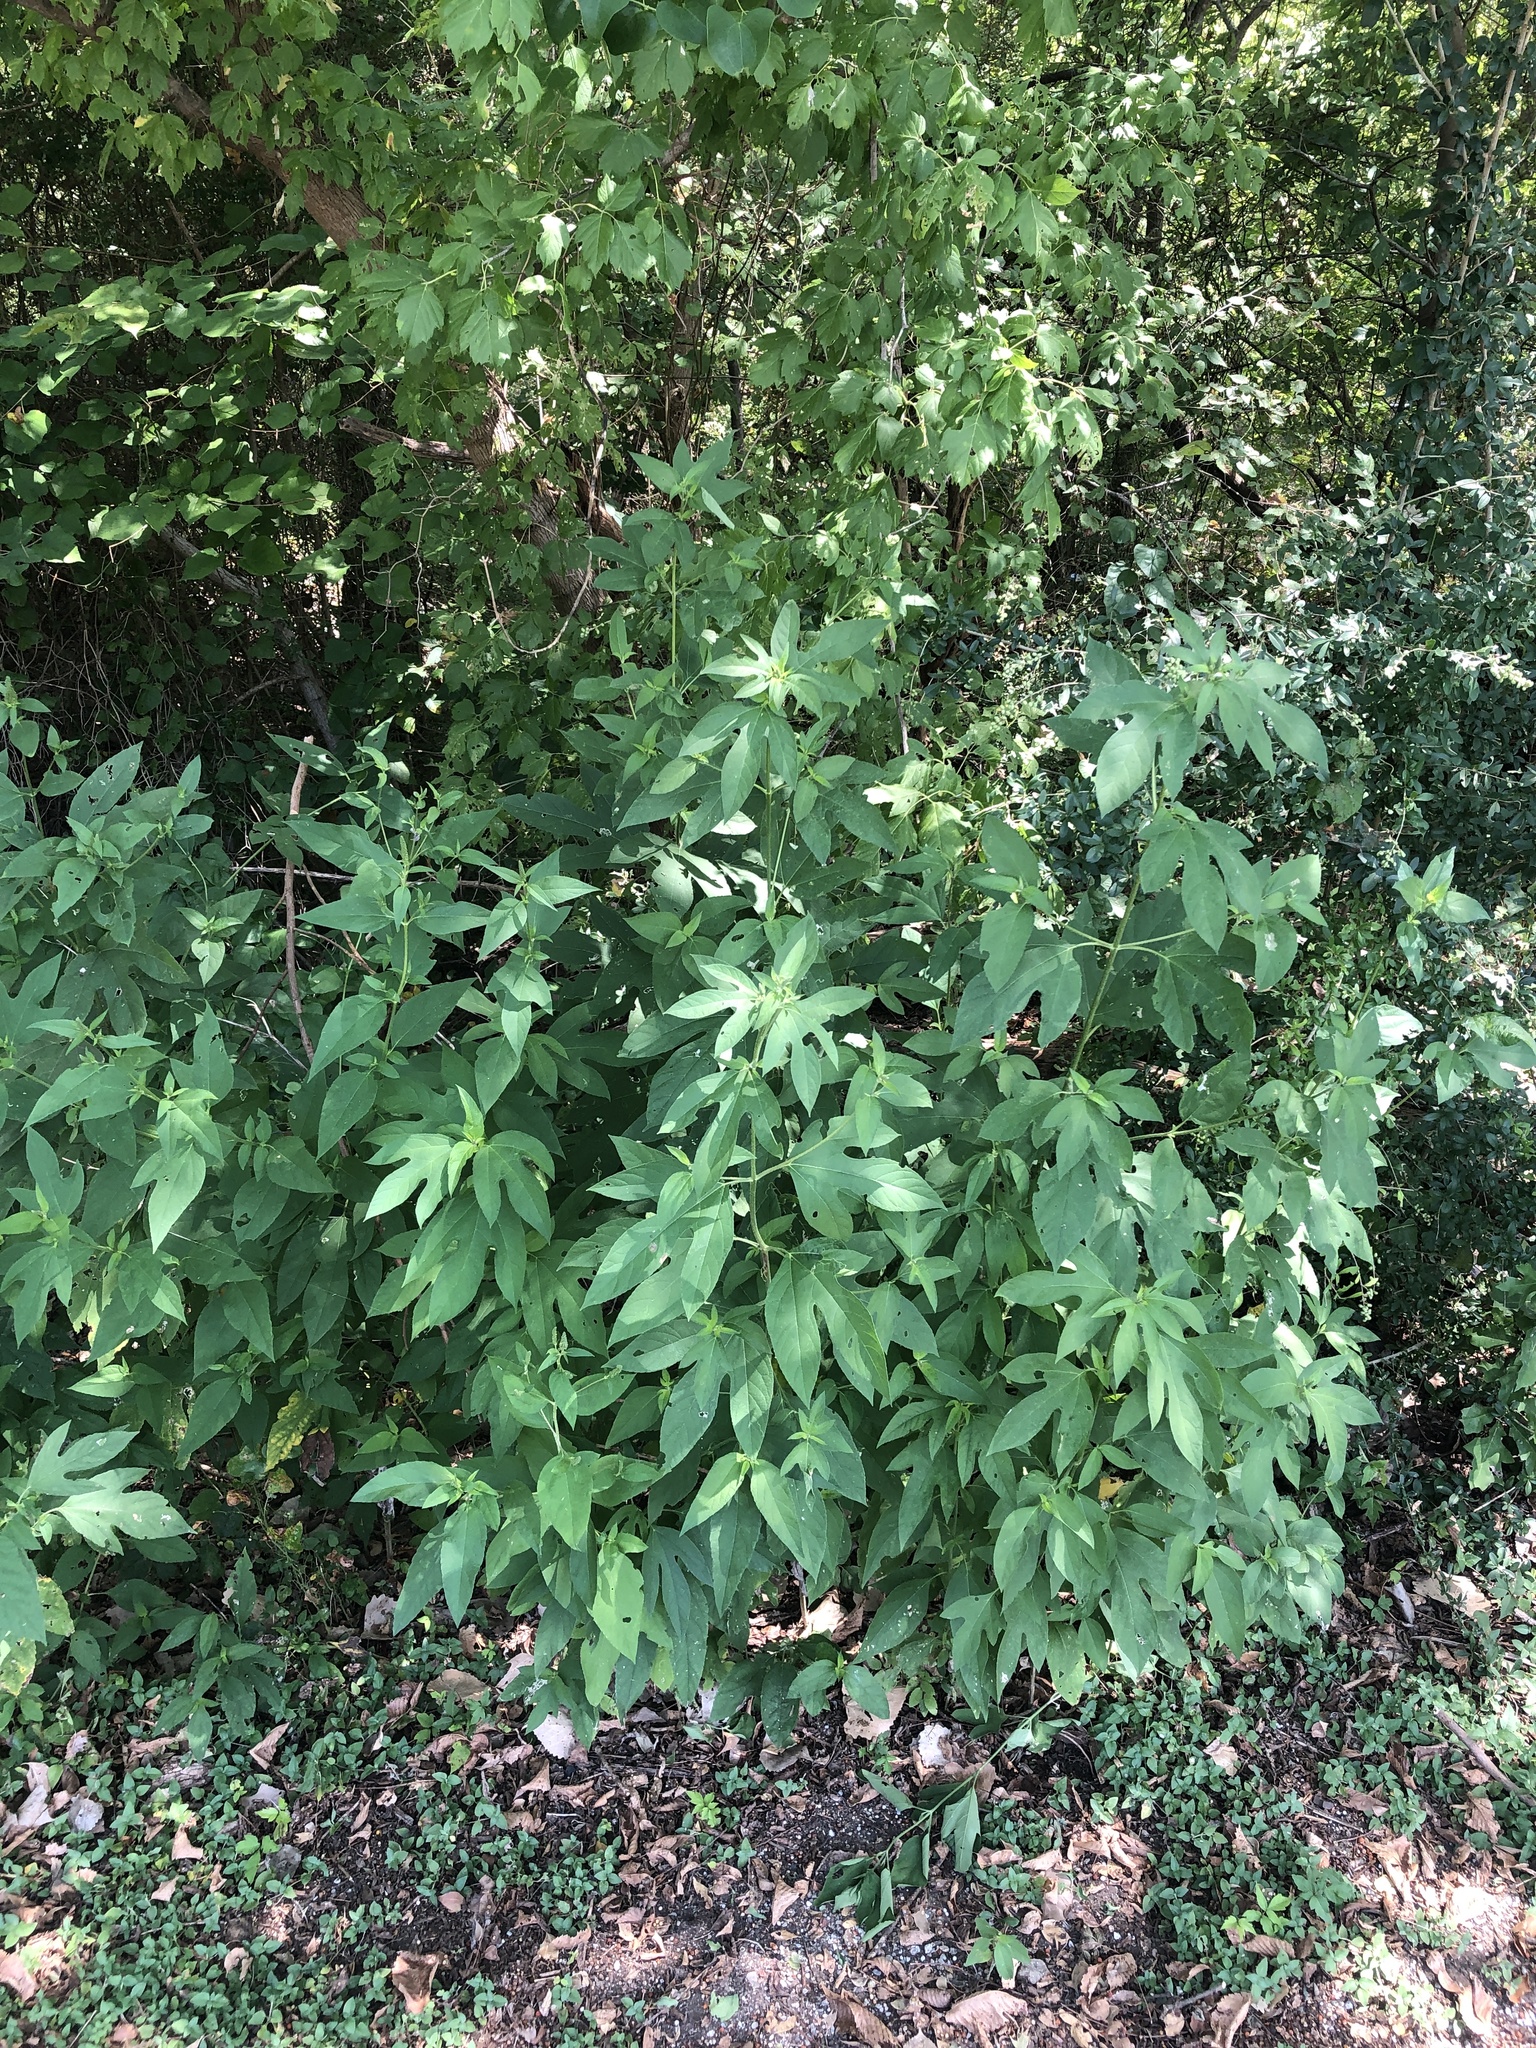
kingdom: Plantae
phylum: Tracheophyta
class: Magnoliopsida
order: Asterales
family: Asteraceae
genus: Ambrosia
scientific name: Ambrosia trifida
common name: Giant ragweed
